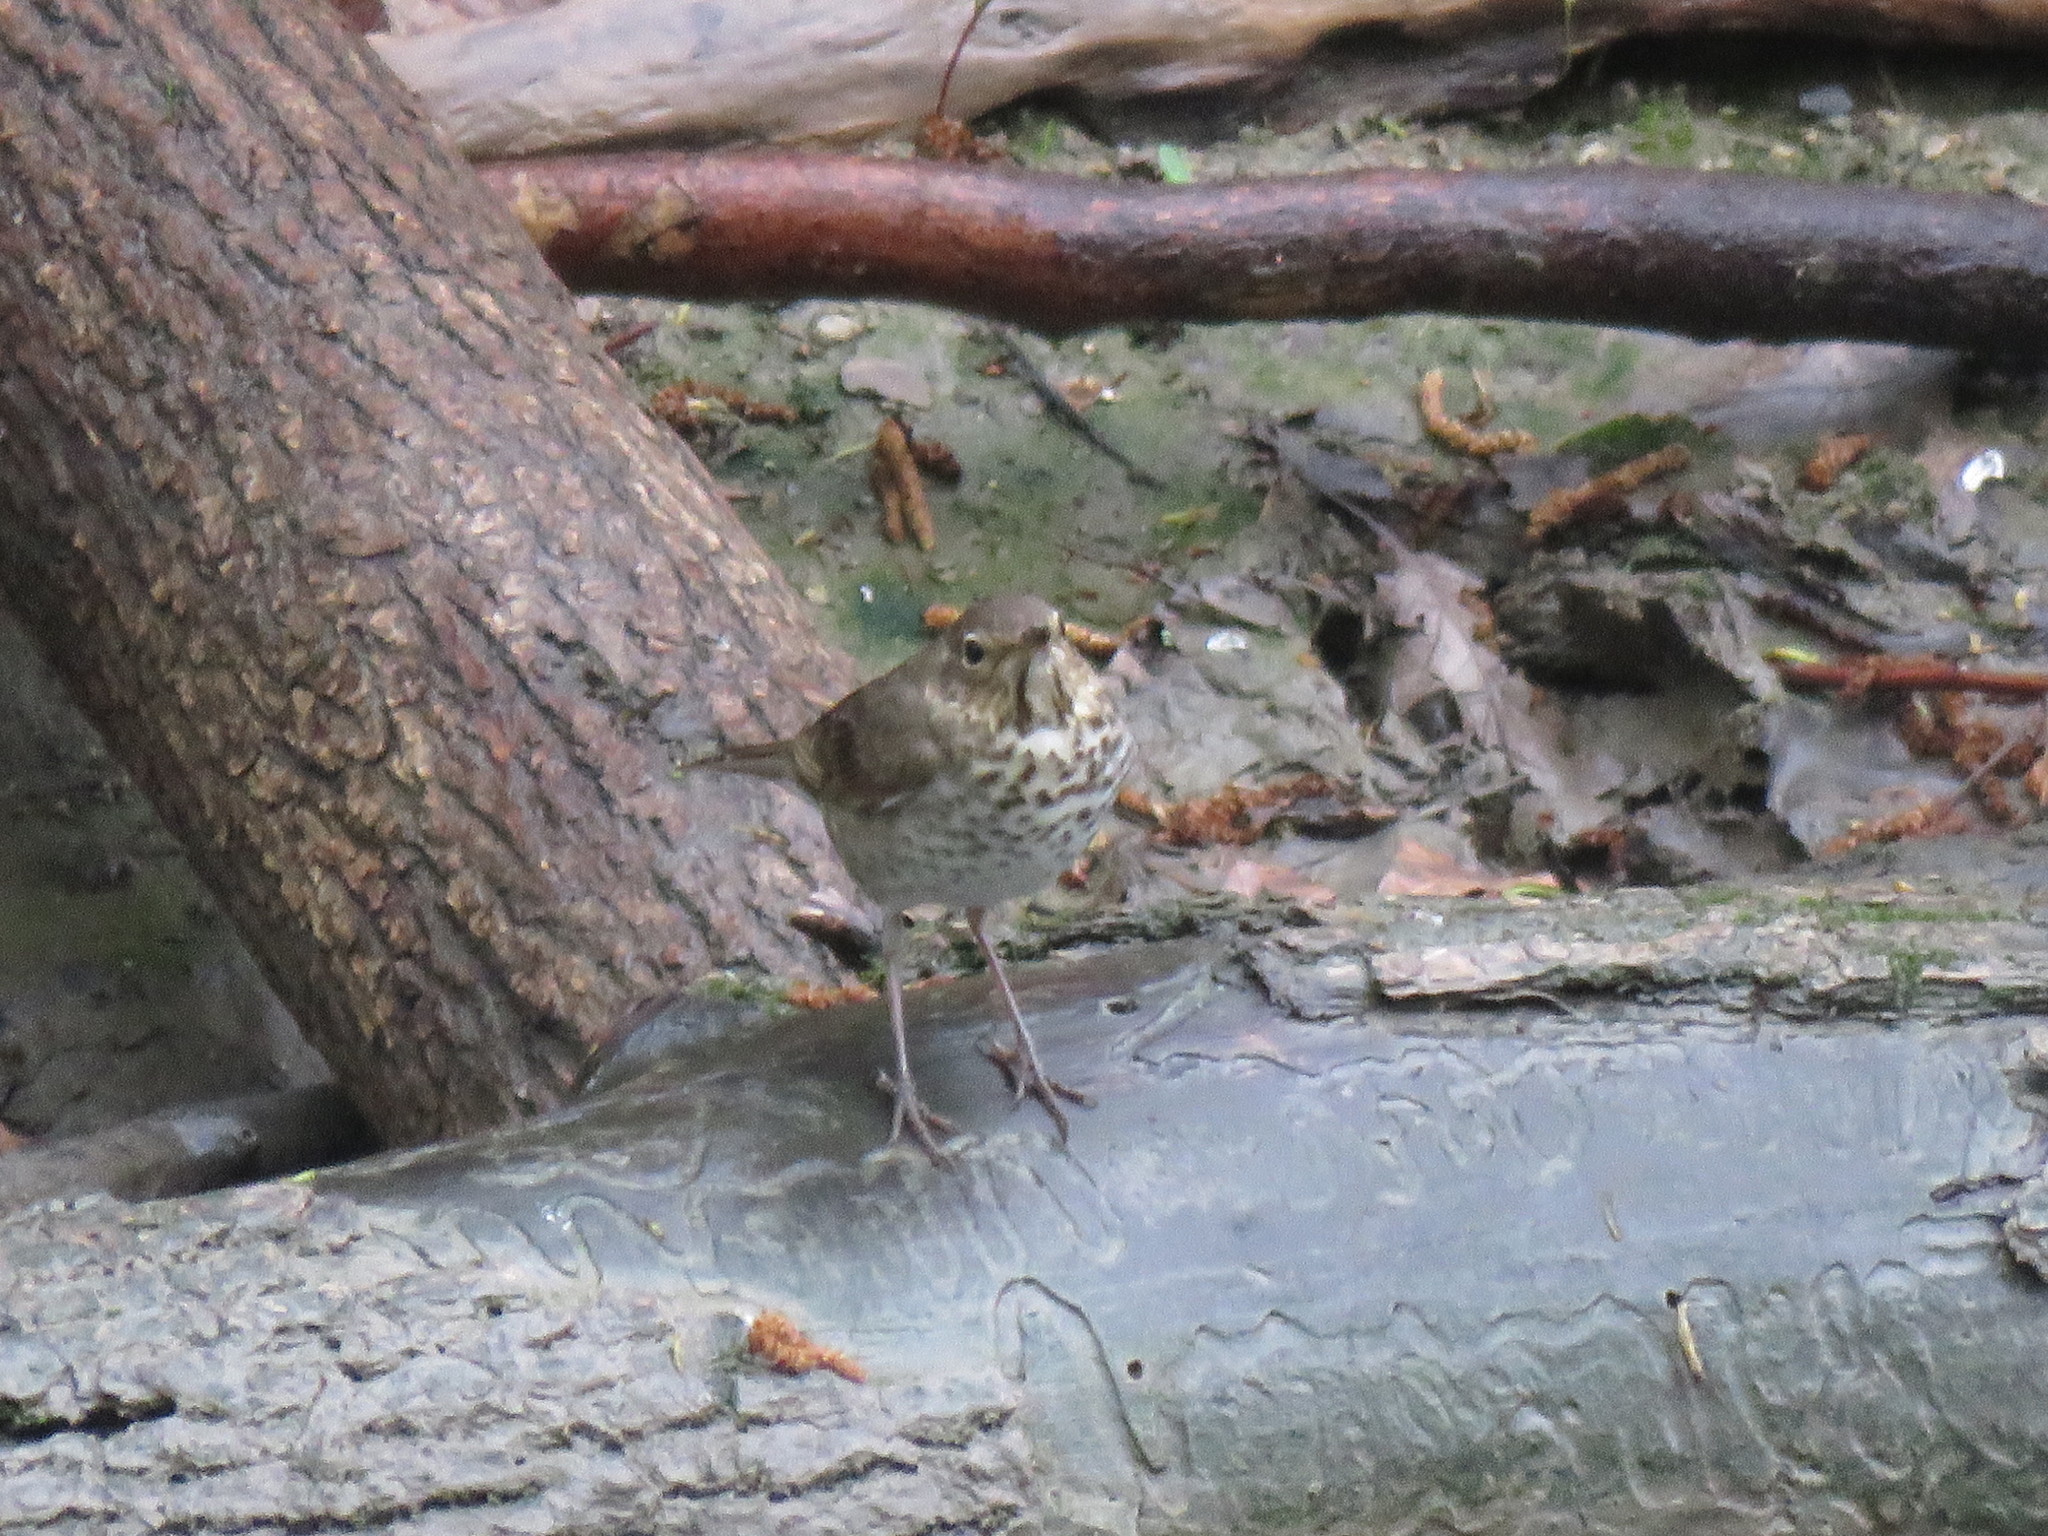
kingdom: Animalia
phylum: Chordata
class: Aves
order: Passeriformes
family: Turdidae
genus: Catharus
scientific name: Catharus ustulatus
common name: Swainson's thrush
